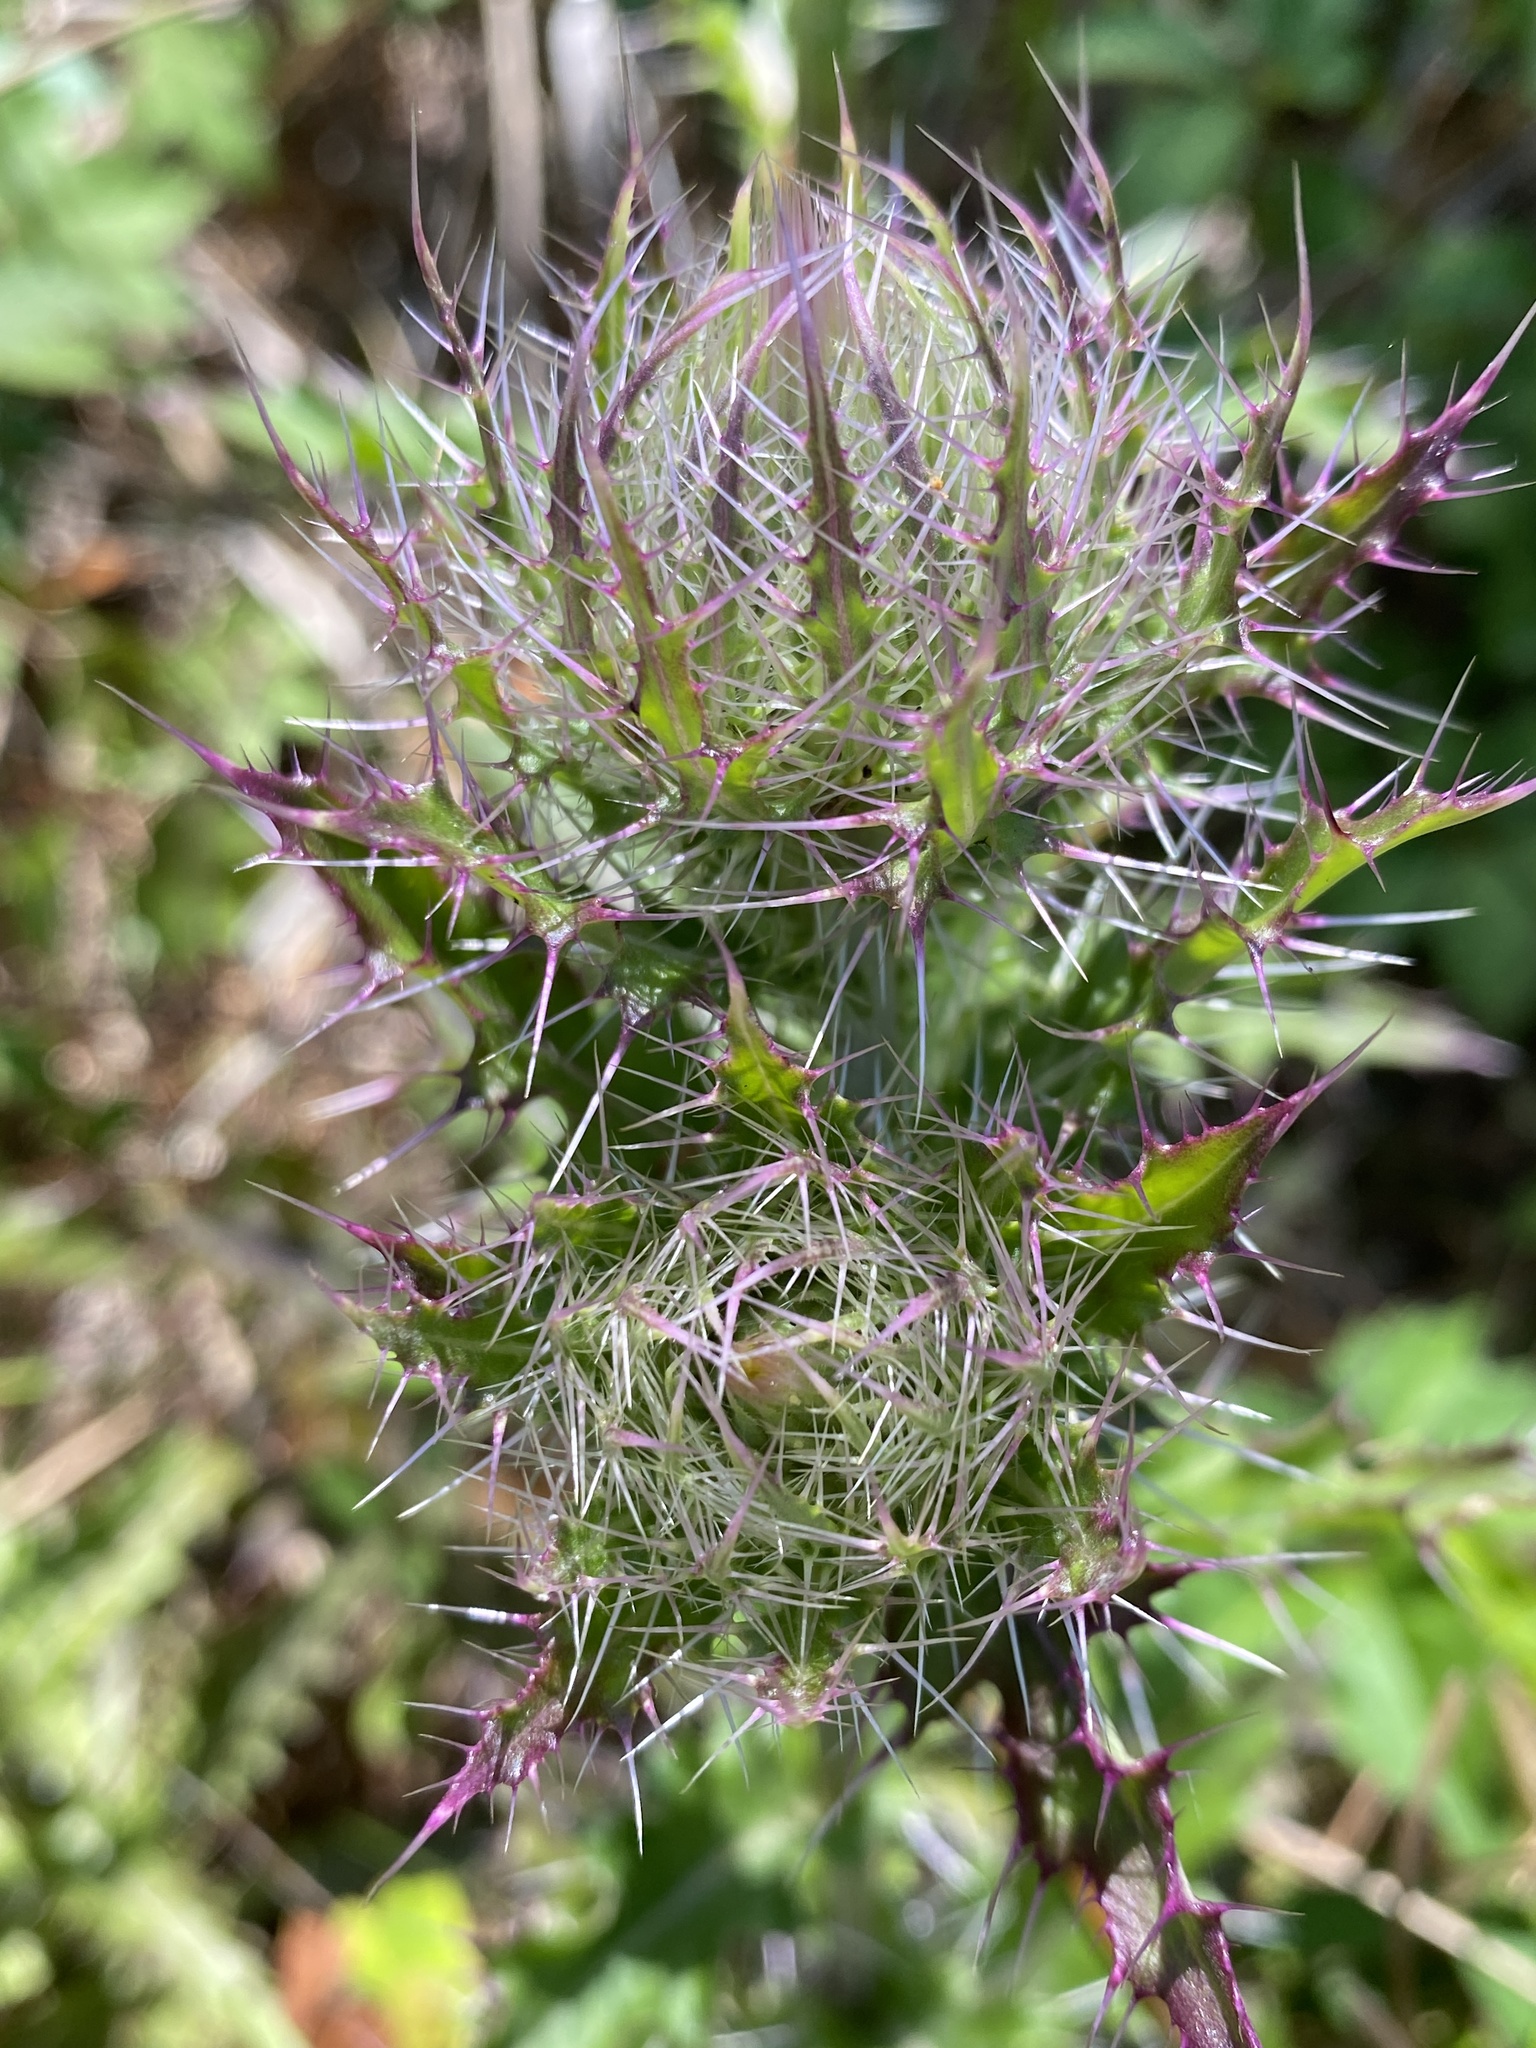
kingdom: Plantae
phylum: Tracheophyta
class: Magnoliopsida
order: Asterales
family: Asteraceae
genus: Cirsium
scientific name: Cirsium horridulum
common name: Bristly thistle
